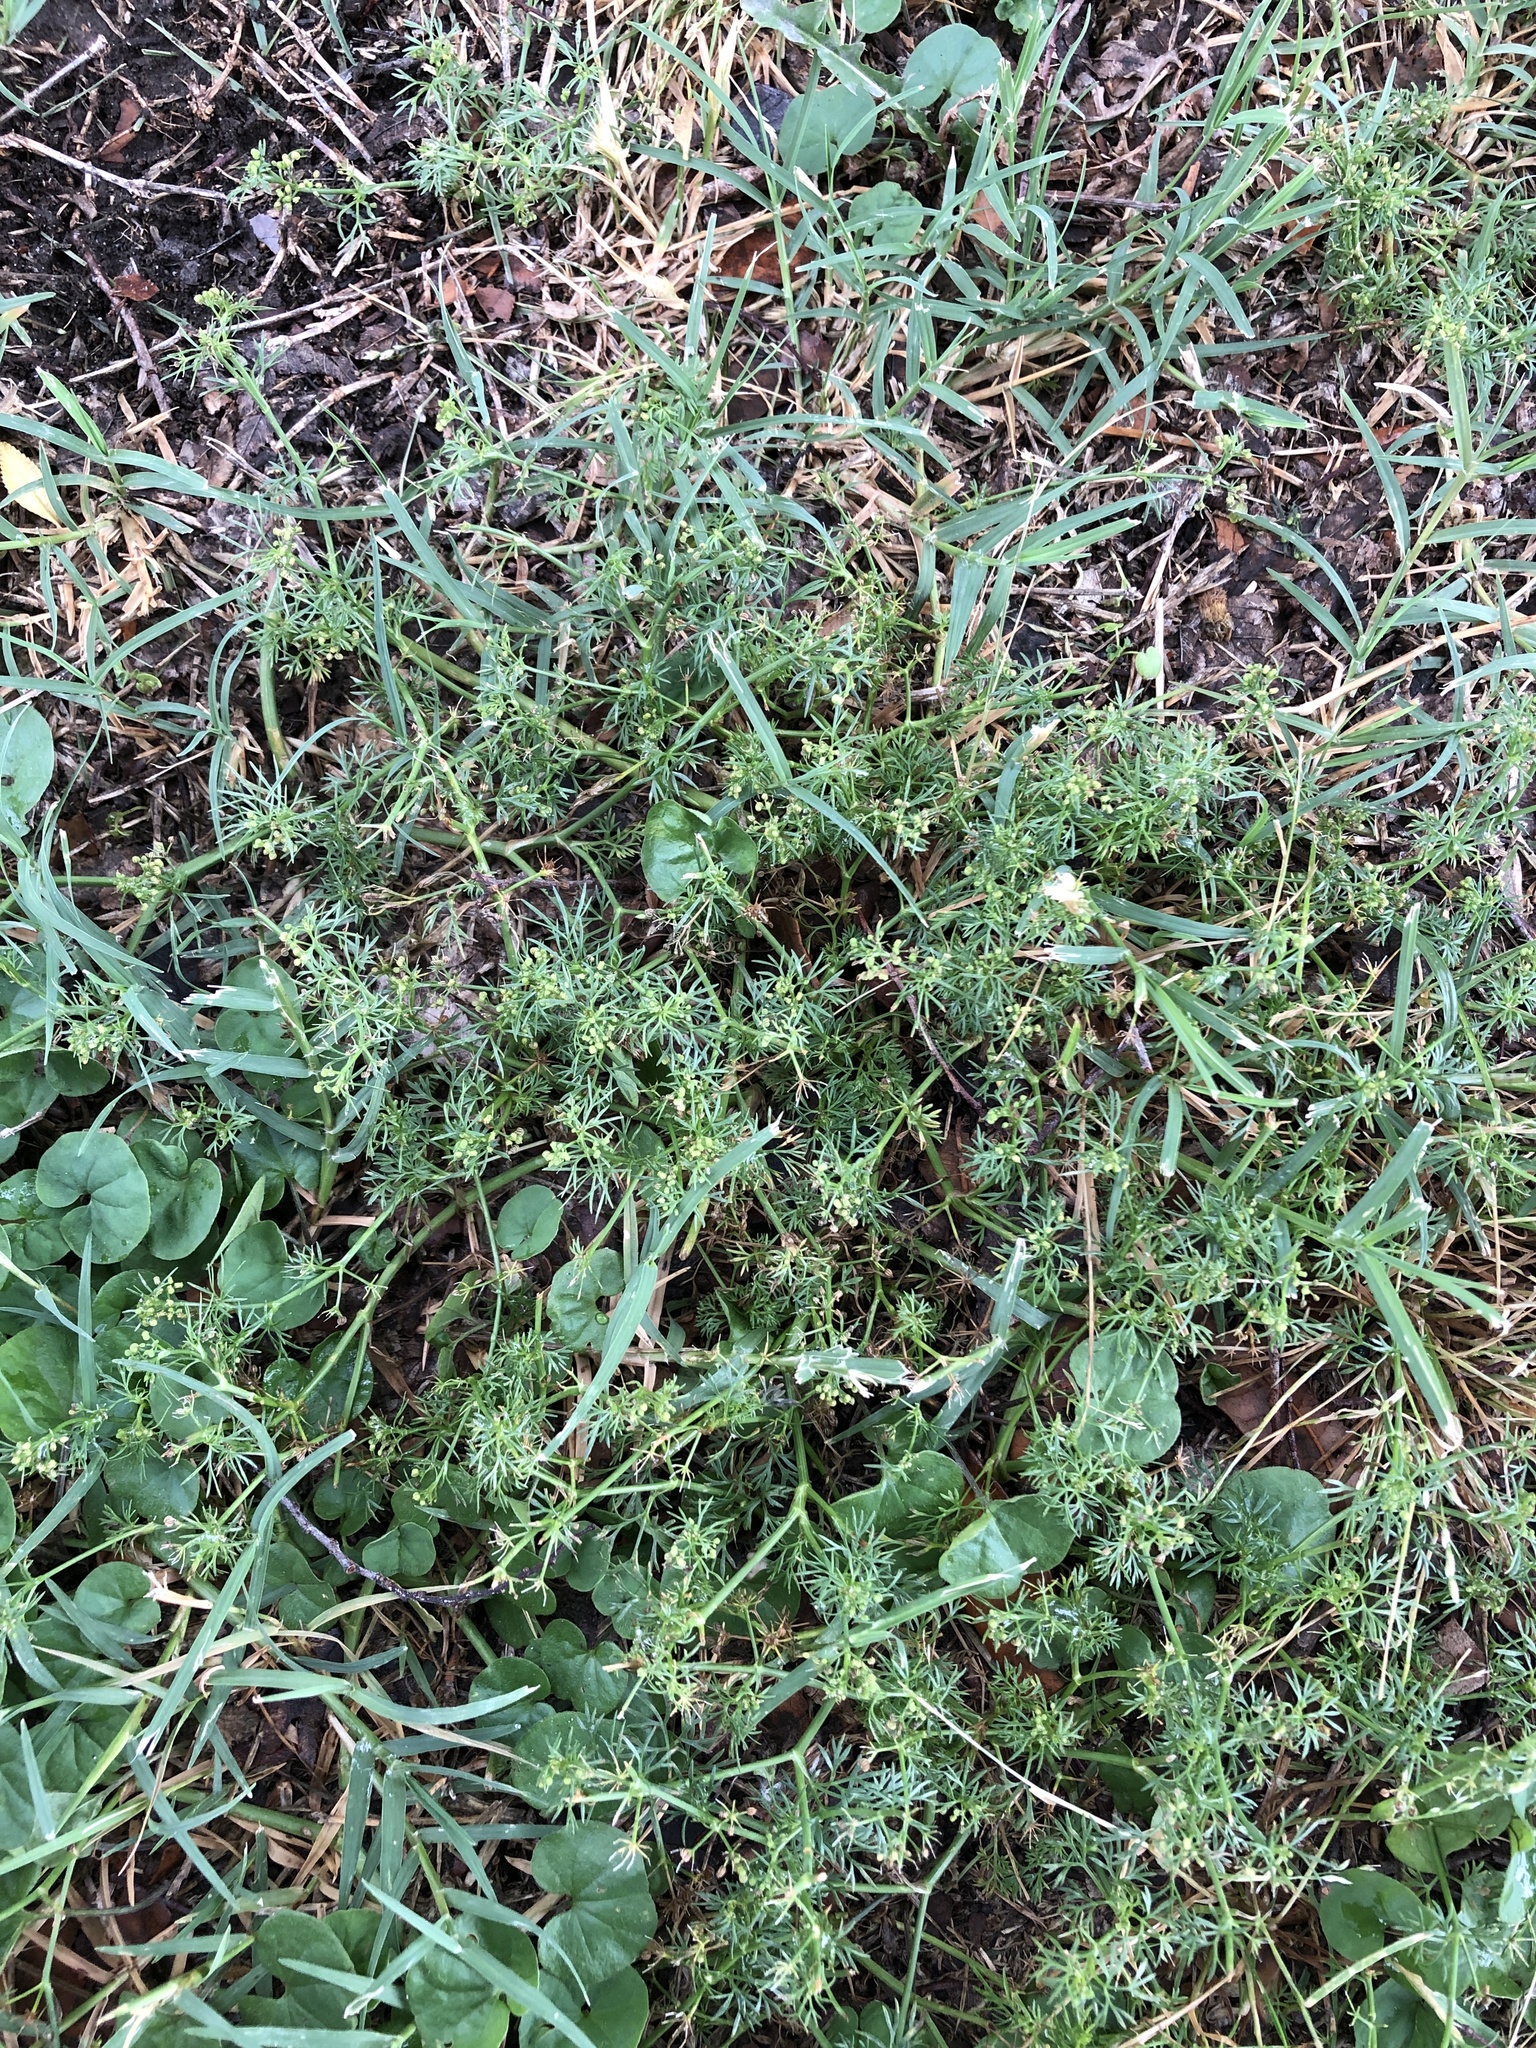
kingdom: Plantae
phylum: Tracheophyta
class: Magnoliopsida
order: Apiales
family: Apiaceae
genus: Cyclospermum
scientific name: Cyclospermum leptophyllum
